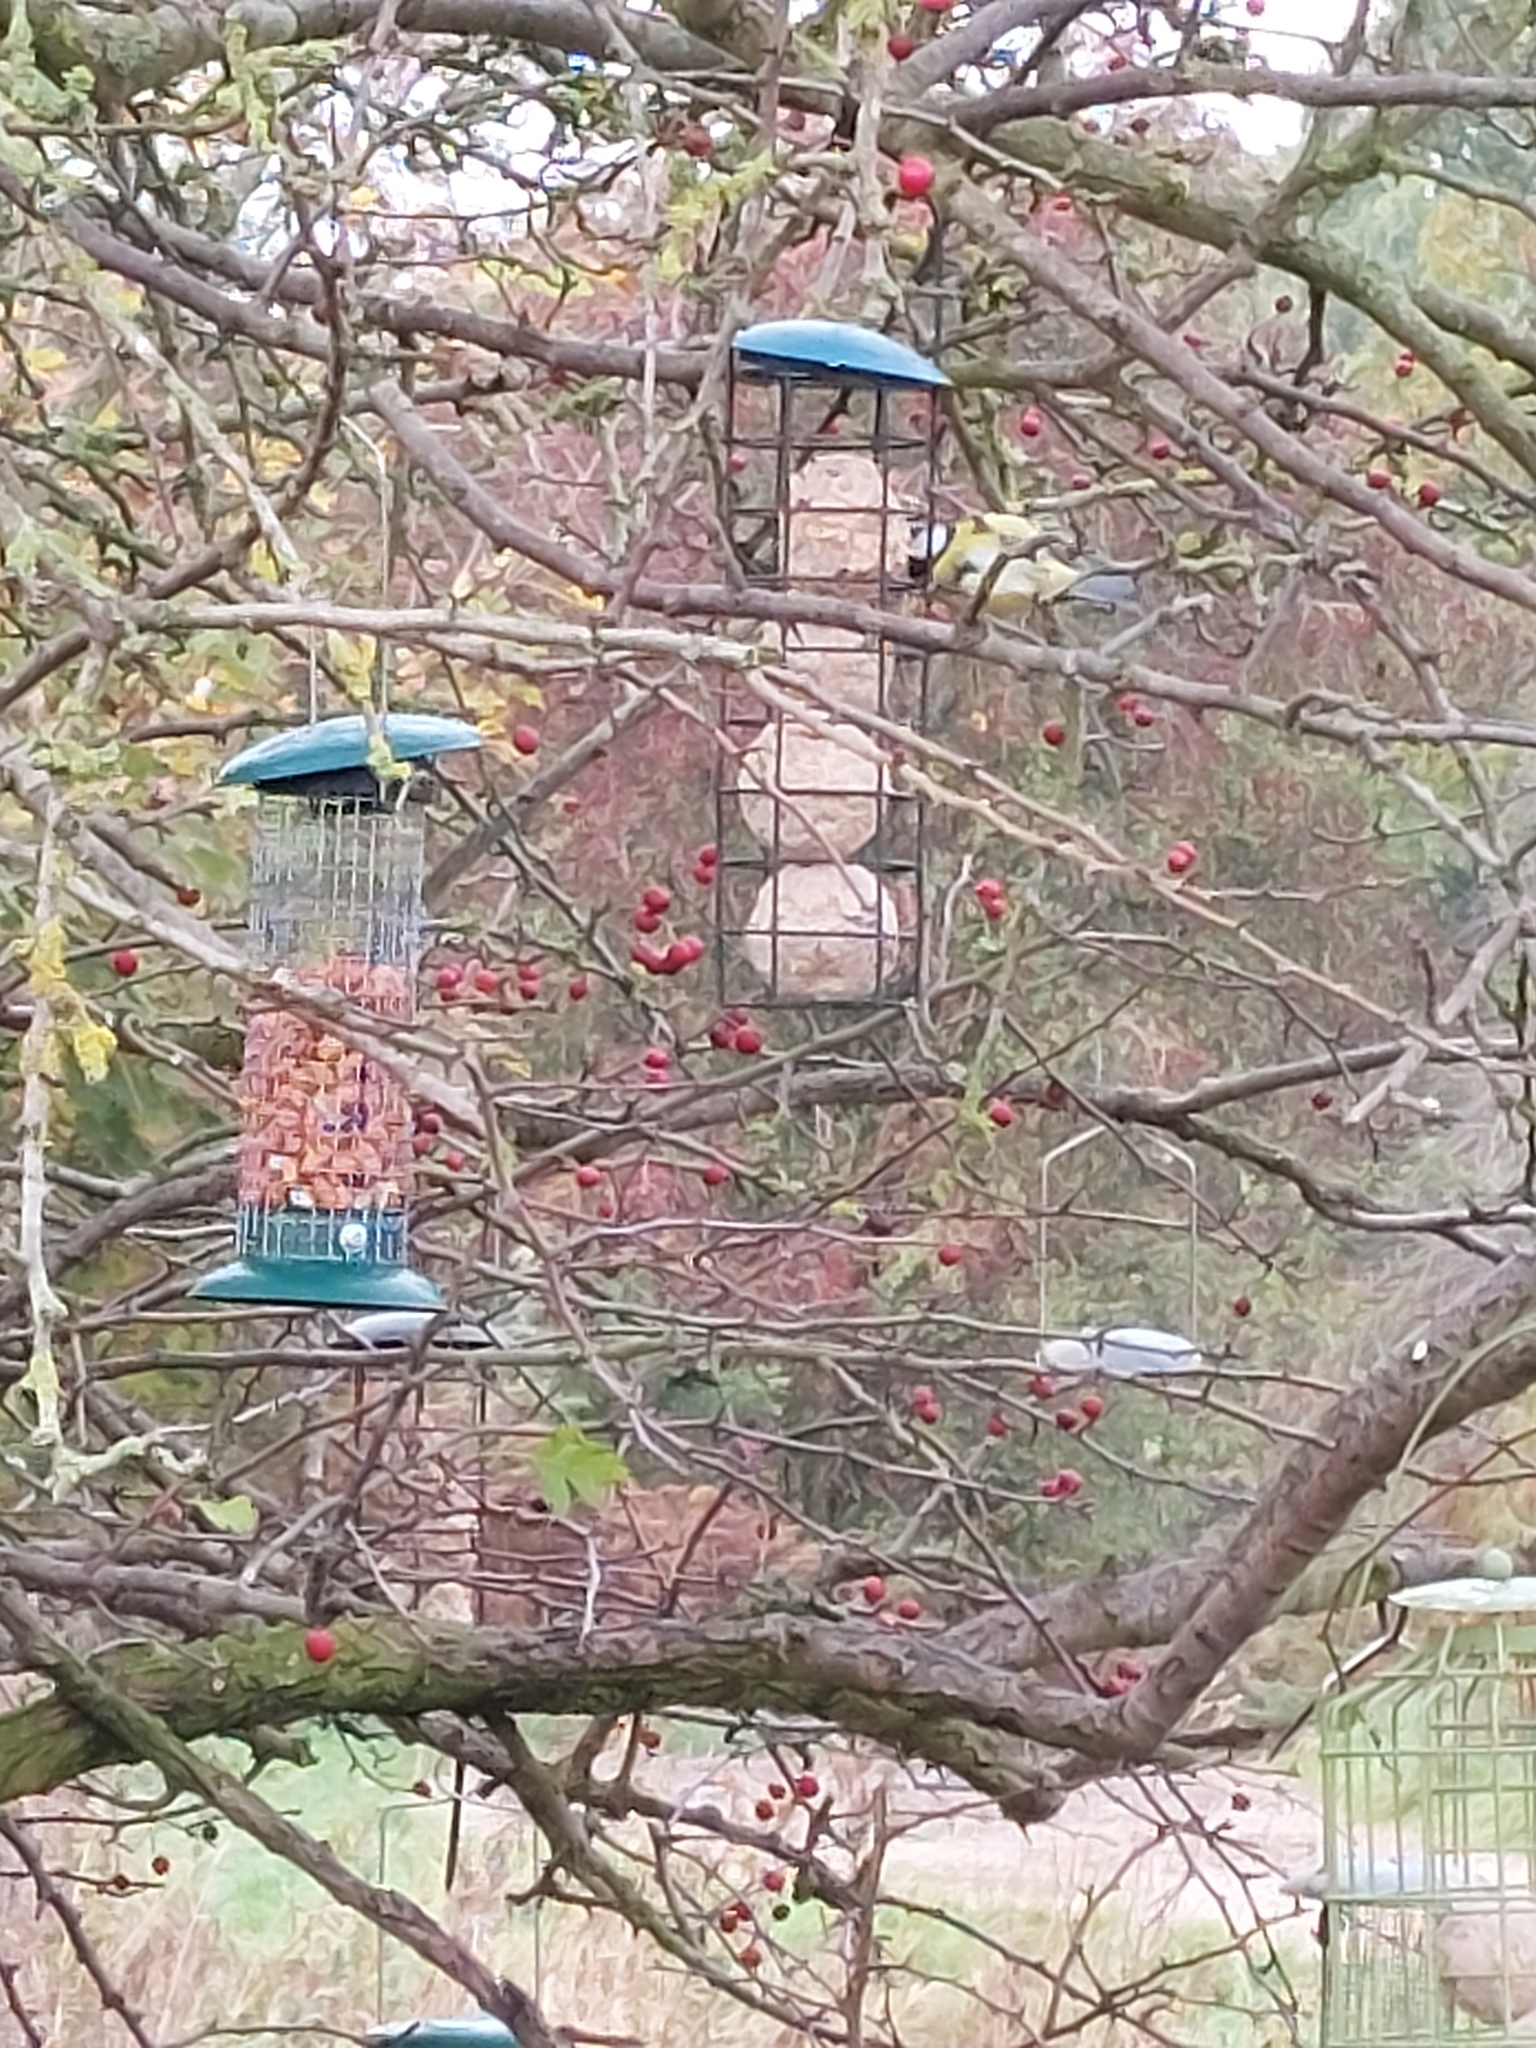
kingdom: Animalia
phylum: Chordata
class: Aves
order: Passeriformes
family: Paridae
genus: Parus
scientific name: Parus major
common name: Great tit
